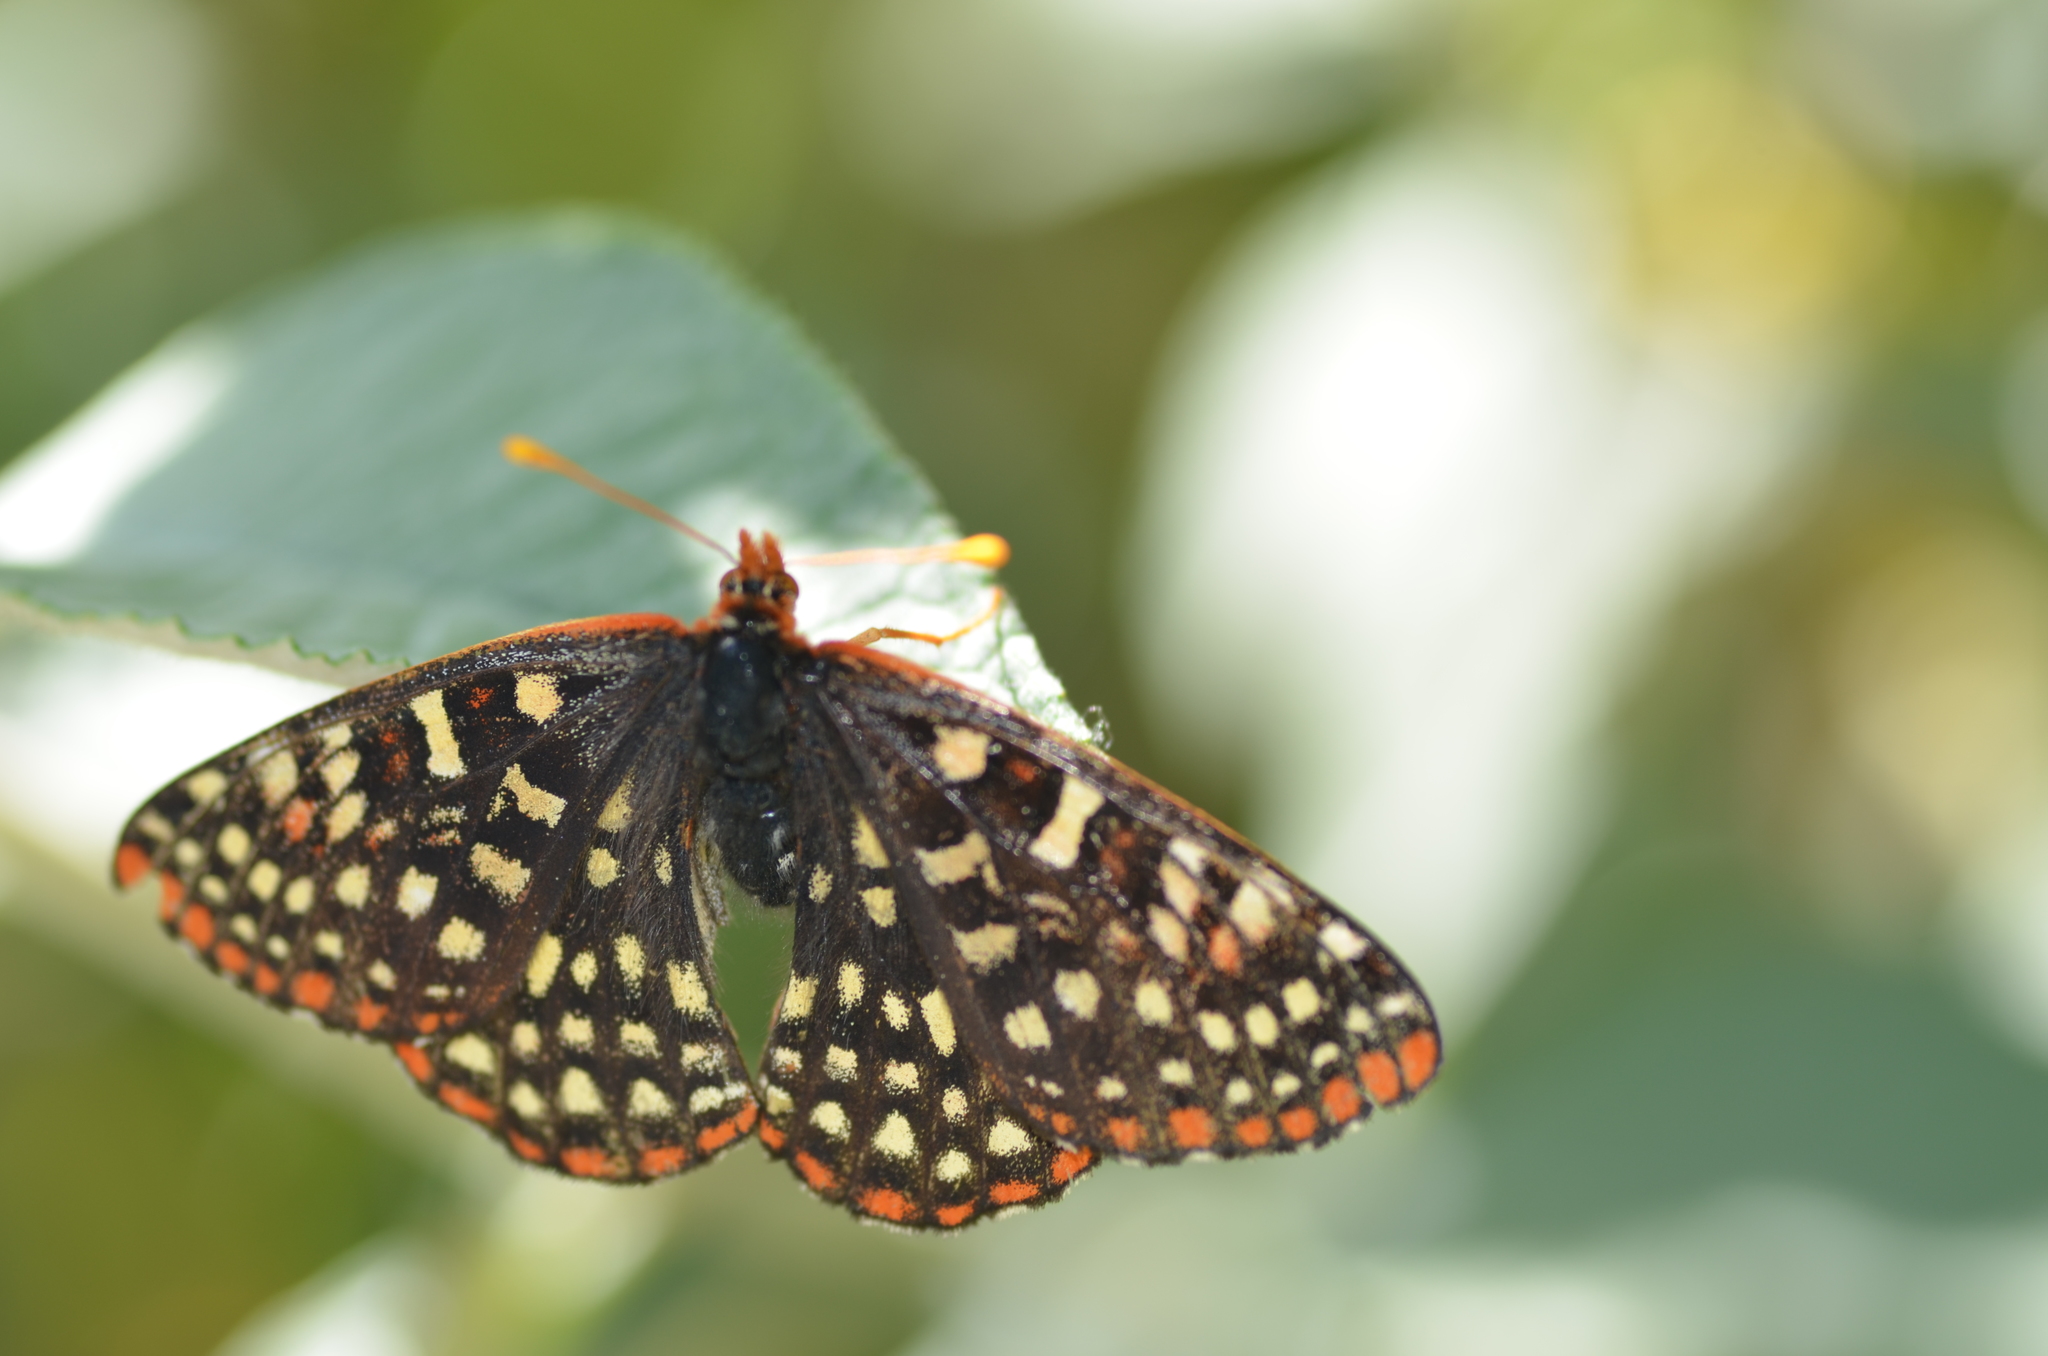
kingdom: Animalia
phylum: Arthropoda
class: Insecta
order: Lepidoptera
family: Nymphalidae
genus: Occidryas
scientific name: Occidryas chalcedona
